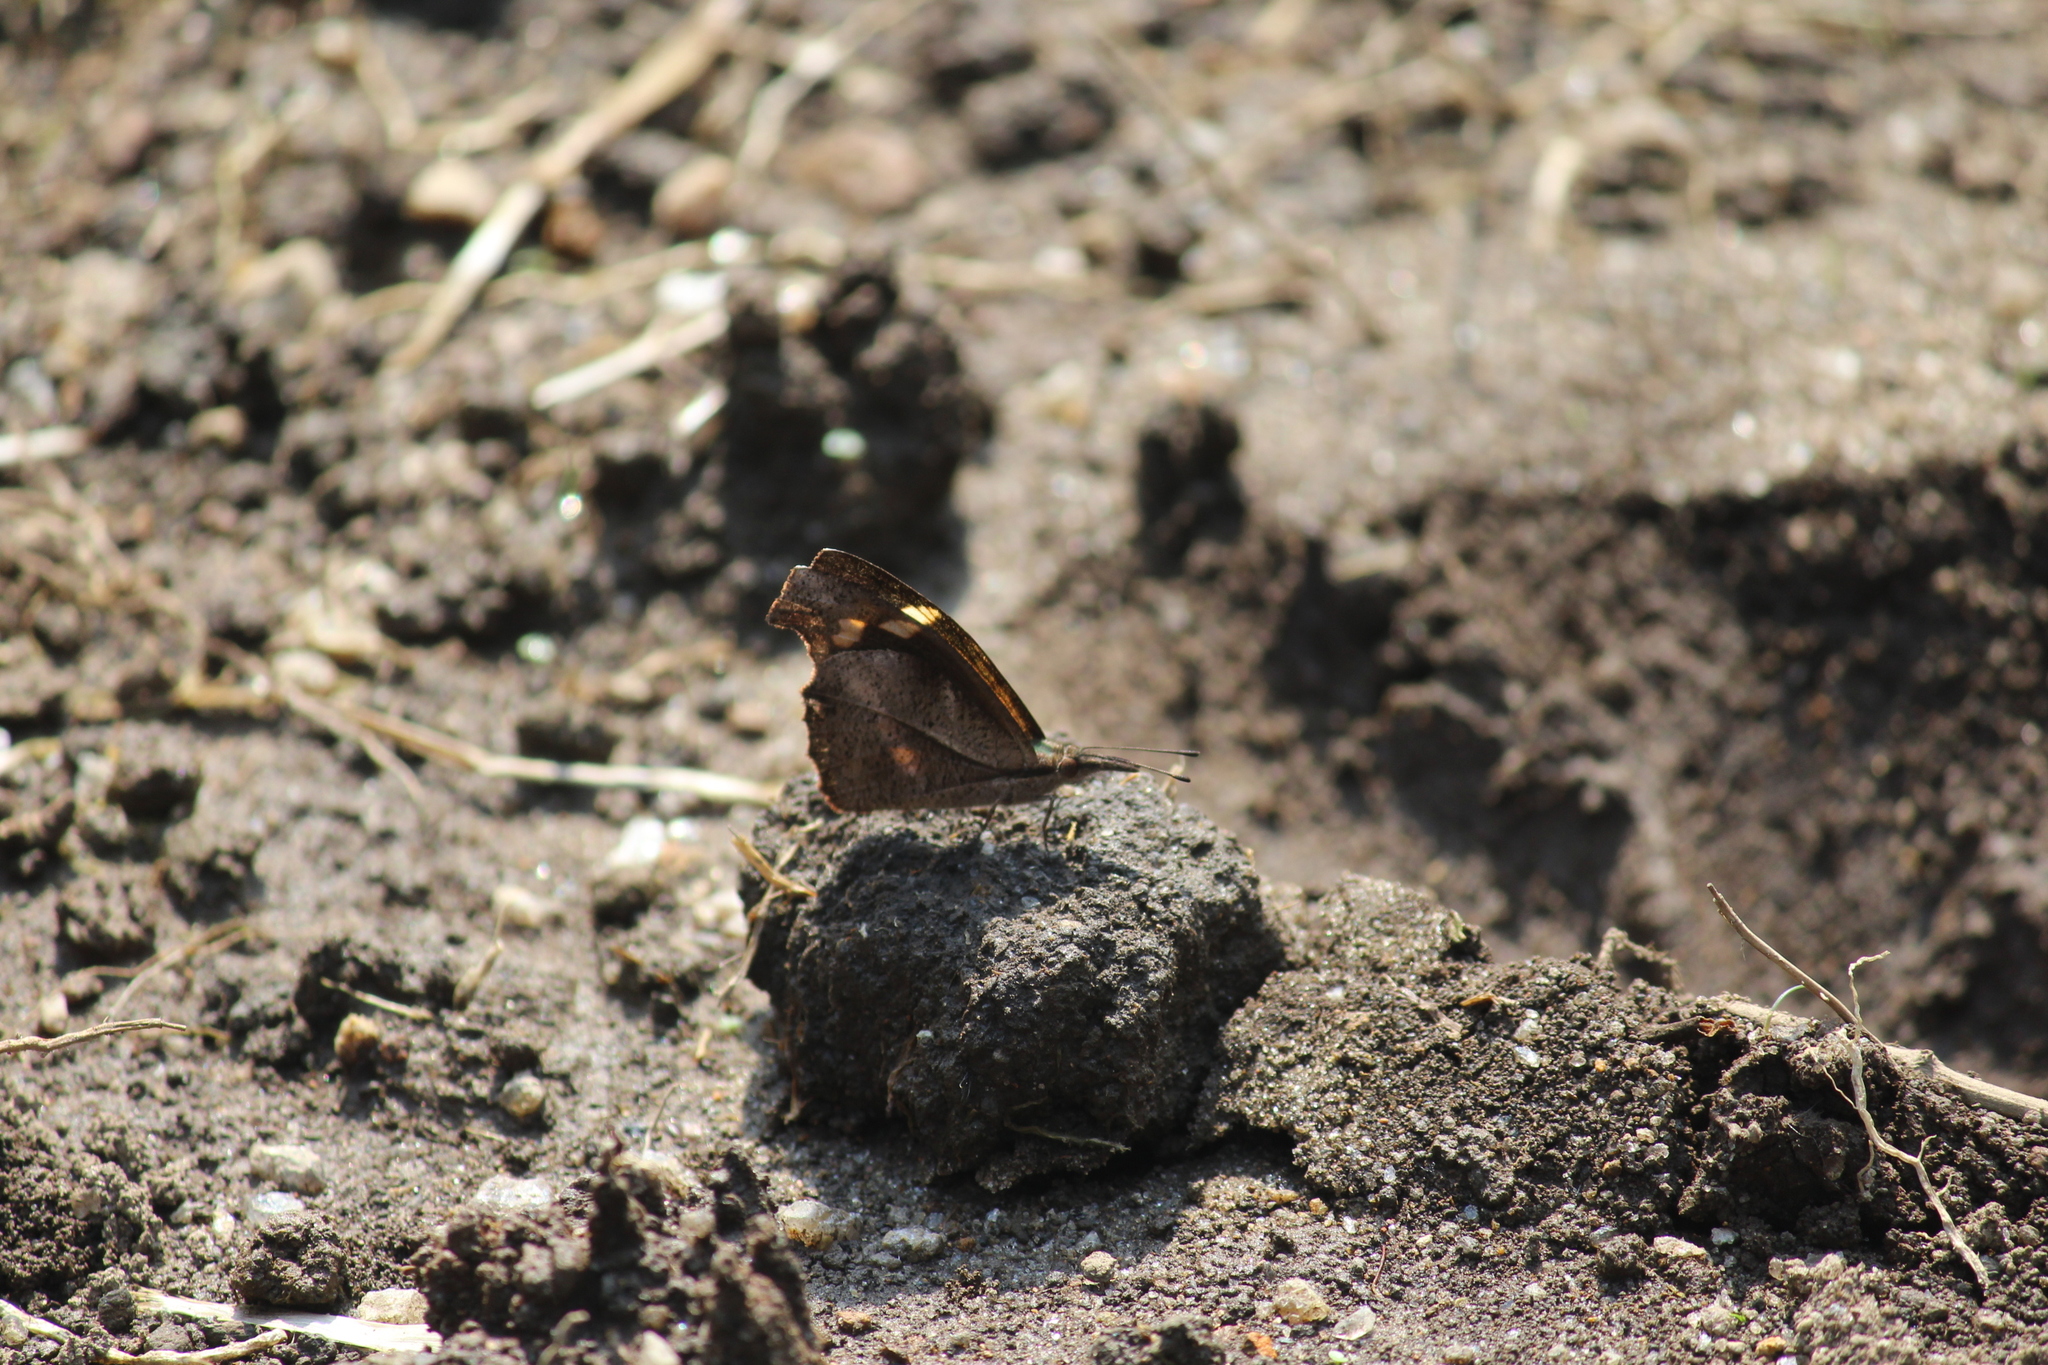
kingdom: Animalia
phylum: Arthropoda
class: Insecta
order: Lepidoptera
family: Nymphalidae
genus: Libythea
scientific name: Libythea myrrha
